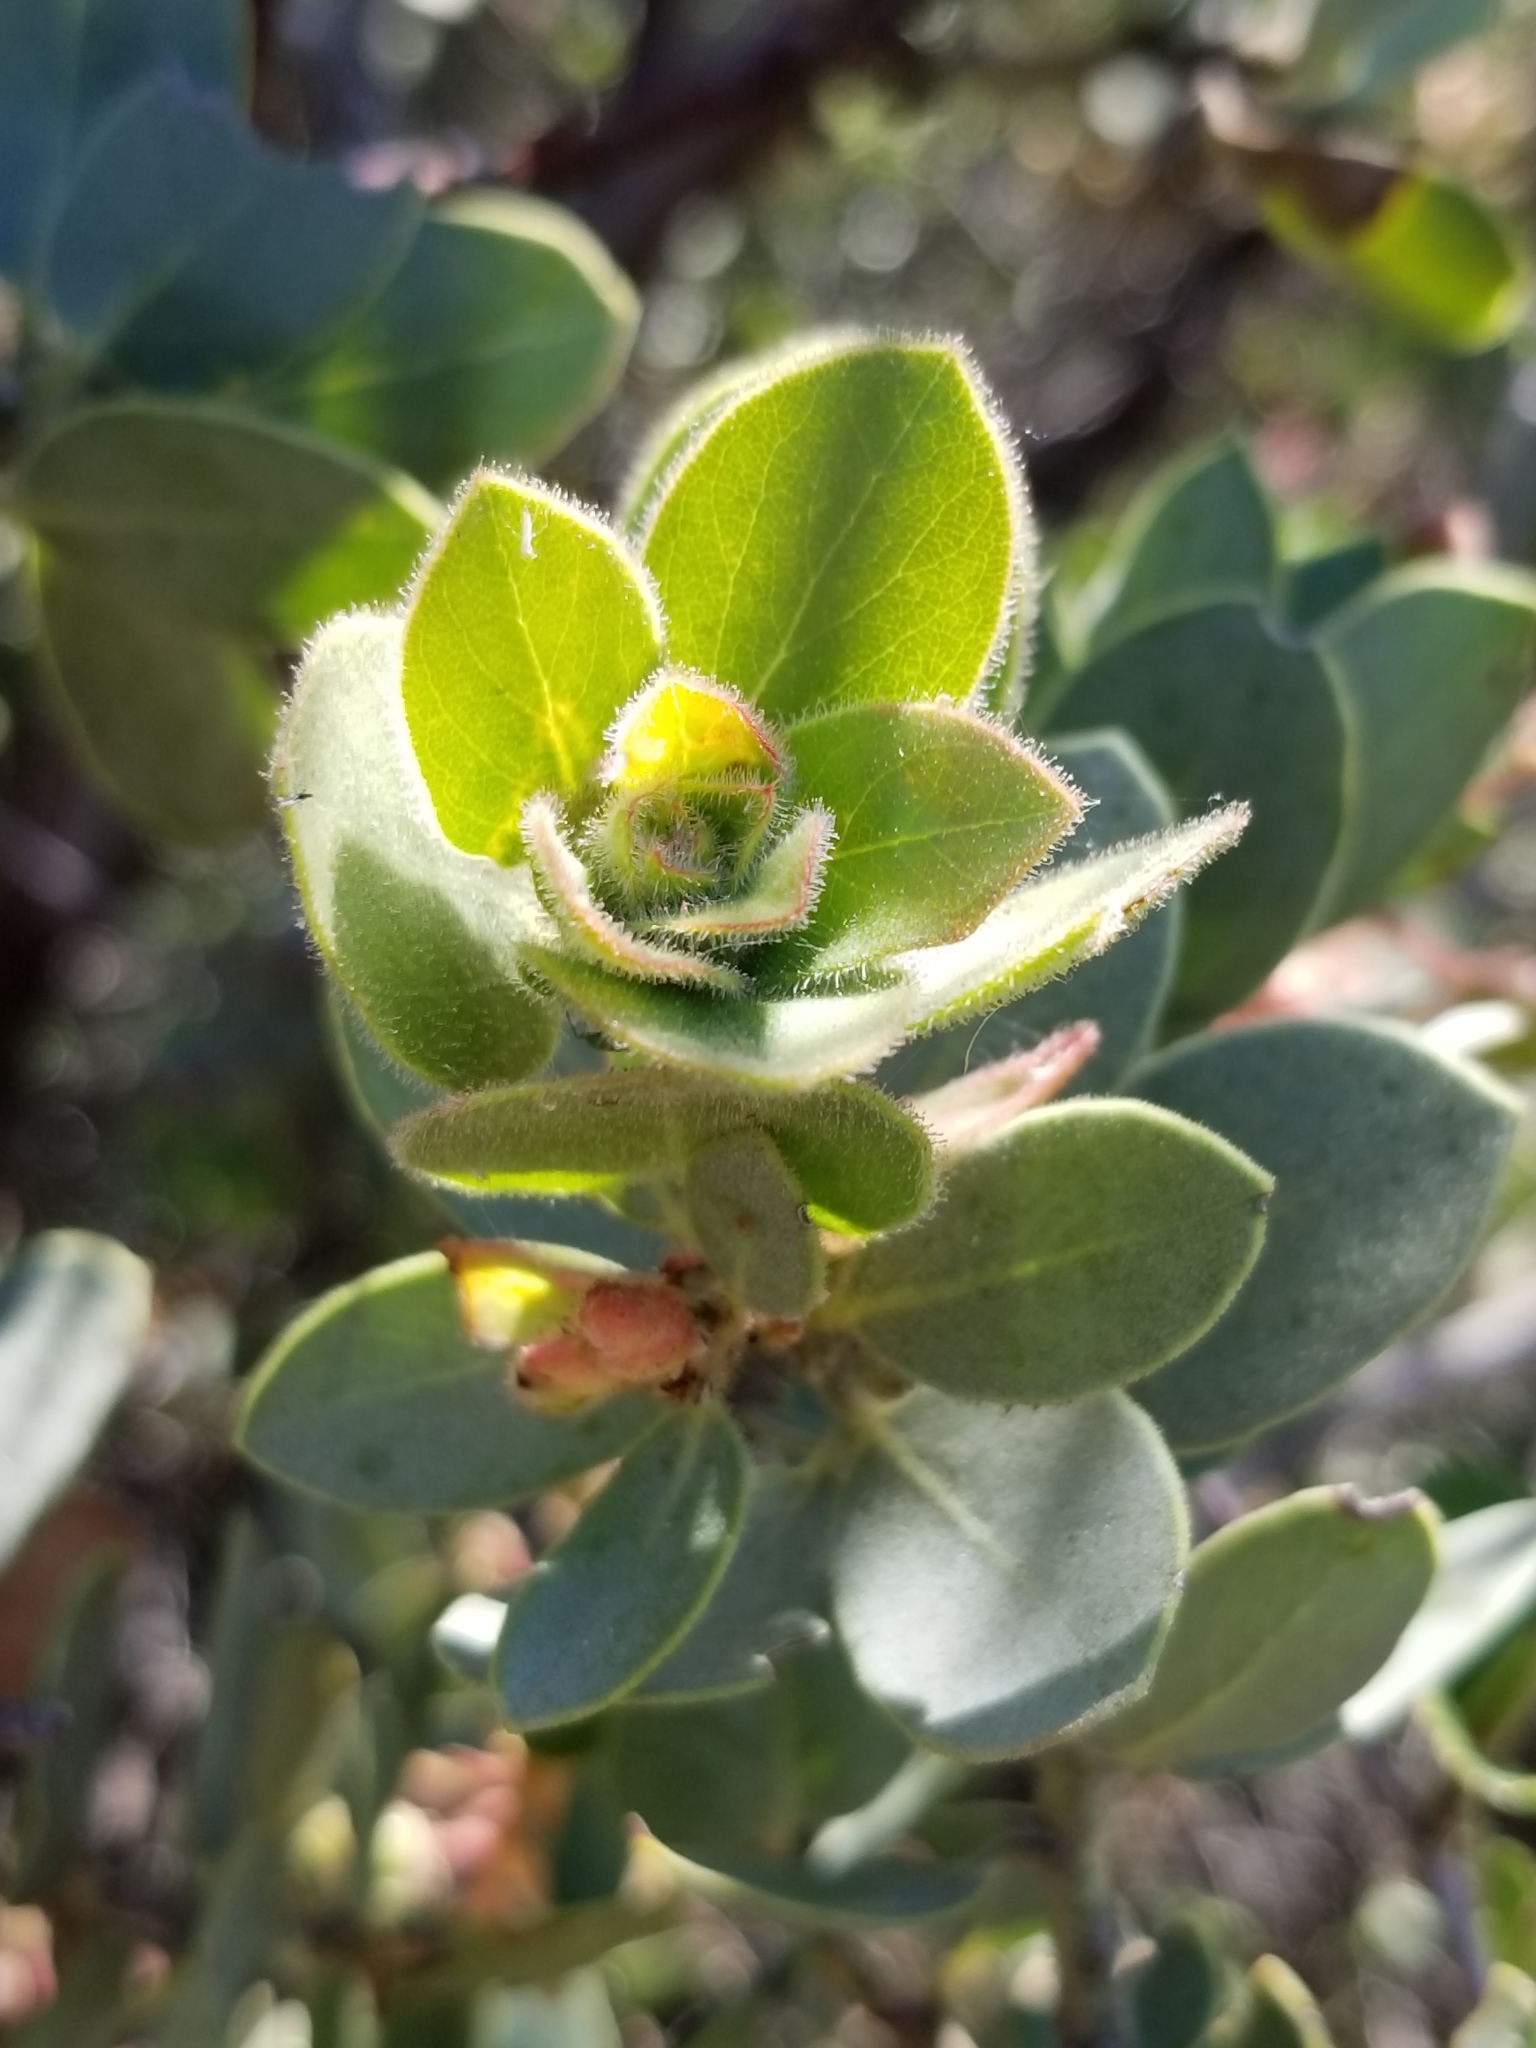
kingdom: Plantae
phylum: Tracheophyta
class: Magnoliopsida
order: Ericales
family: Ericaceae
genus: Arctostaphylos
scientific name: Arctostaphylos pringlei
